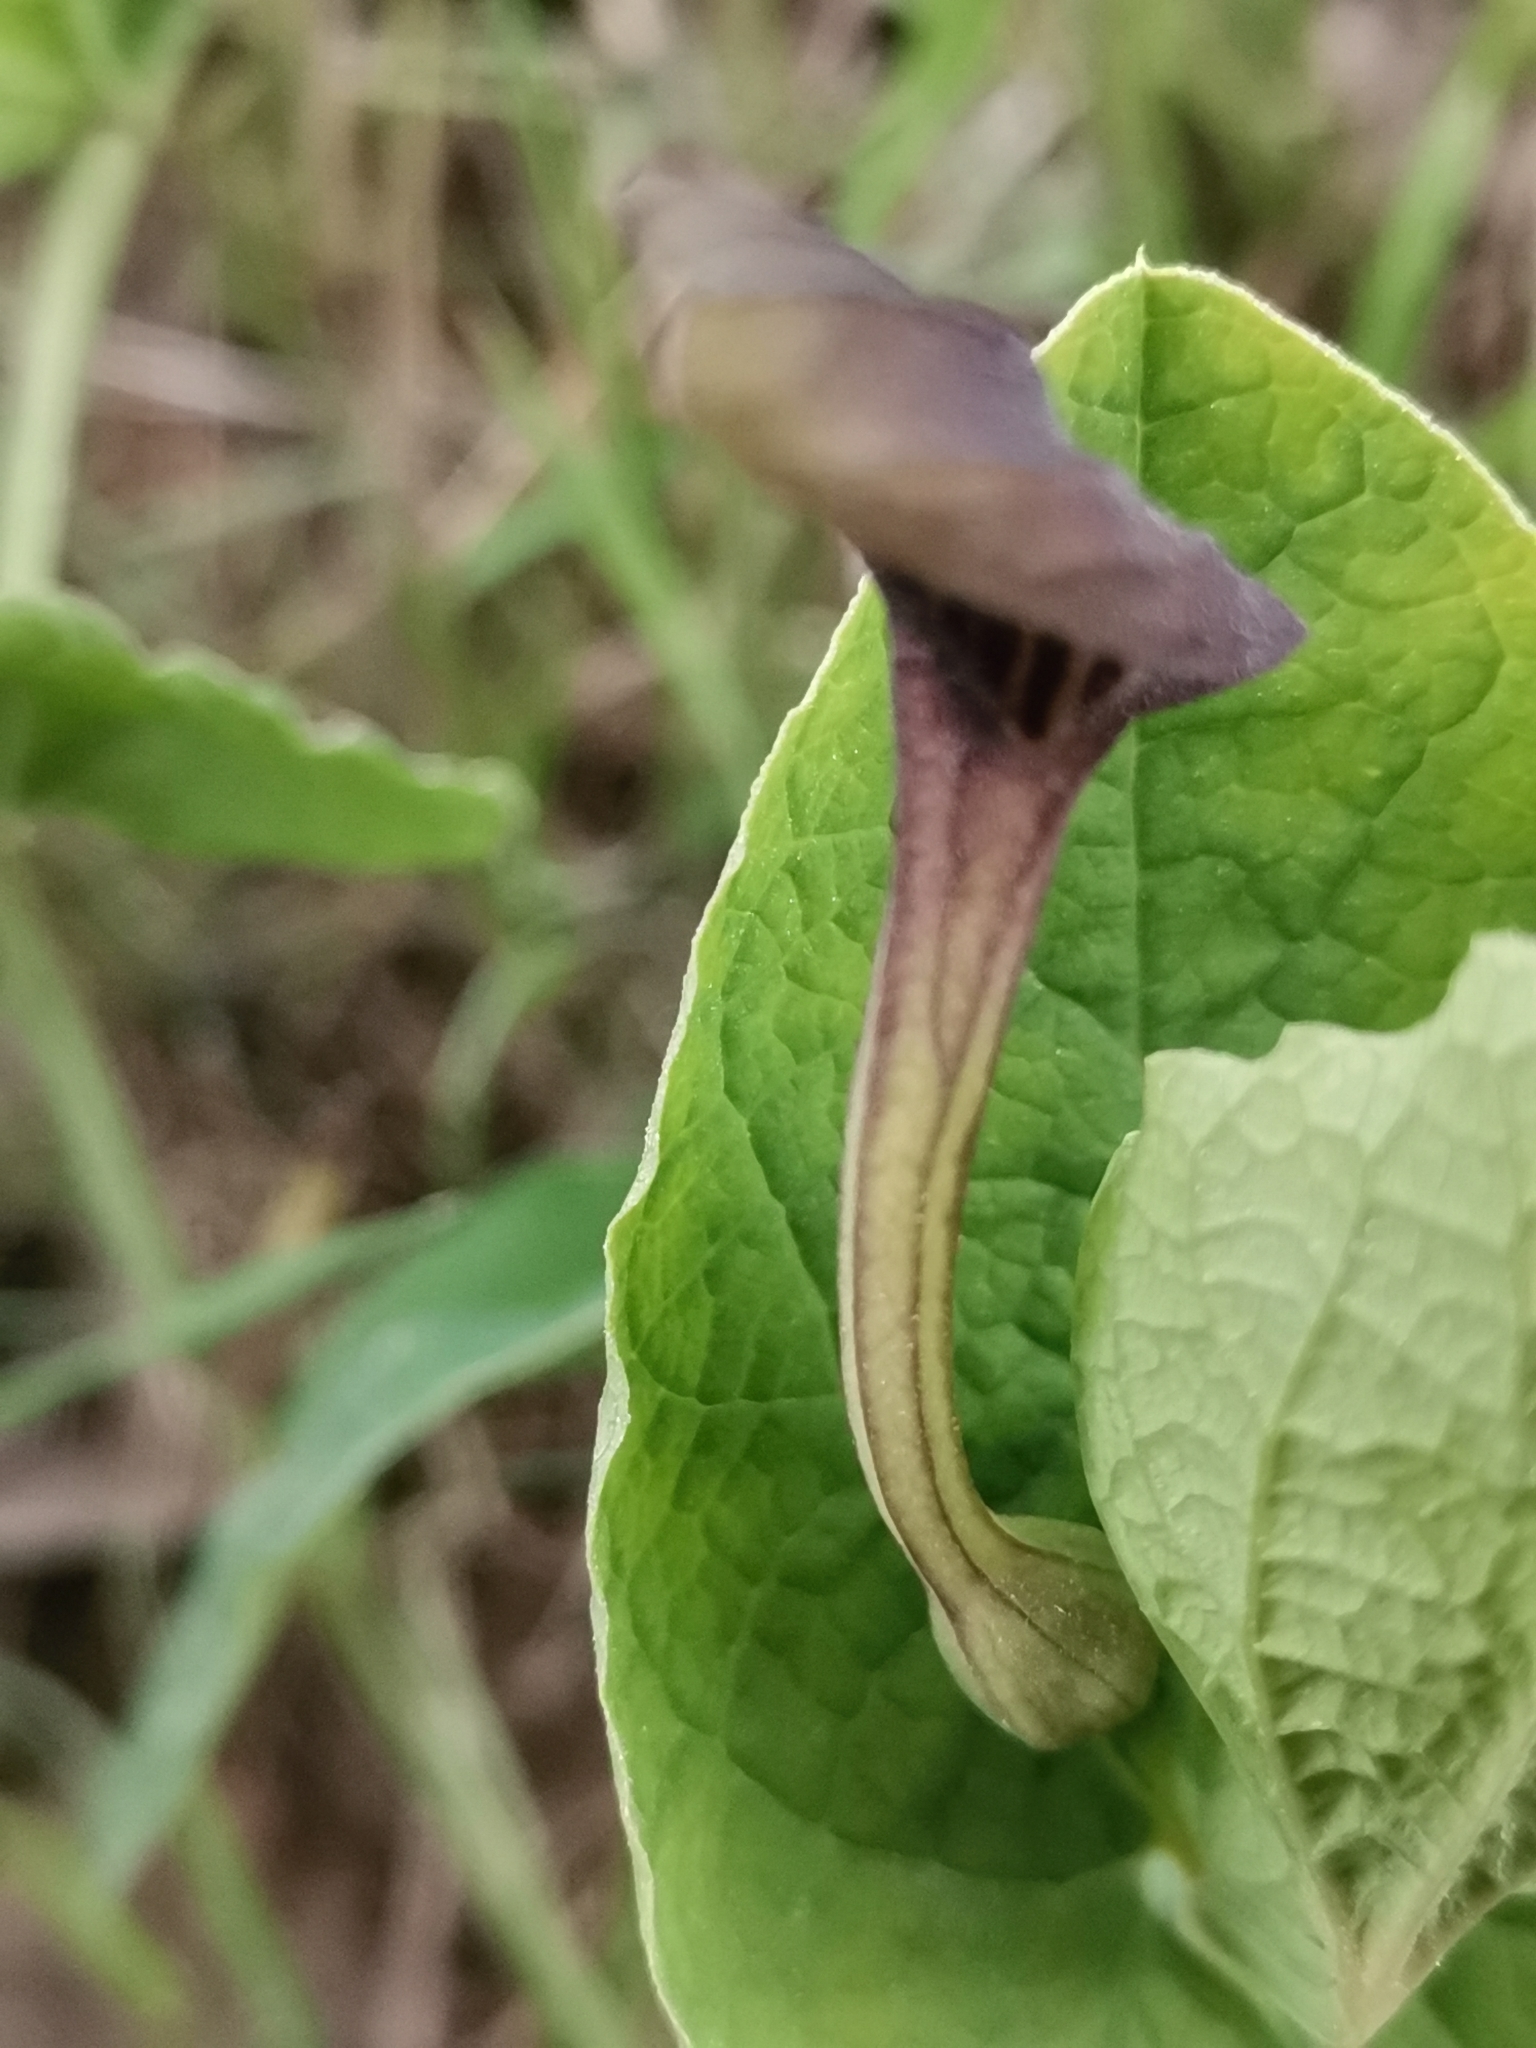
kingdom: Plantae
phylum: Tracheophyta
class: Magnoliopsida
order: Piperales
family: Aristolochiaceae
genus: Aristolochia
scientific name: Aristolochia rotunda
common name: Smearwort
